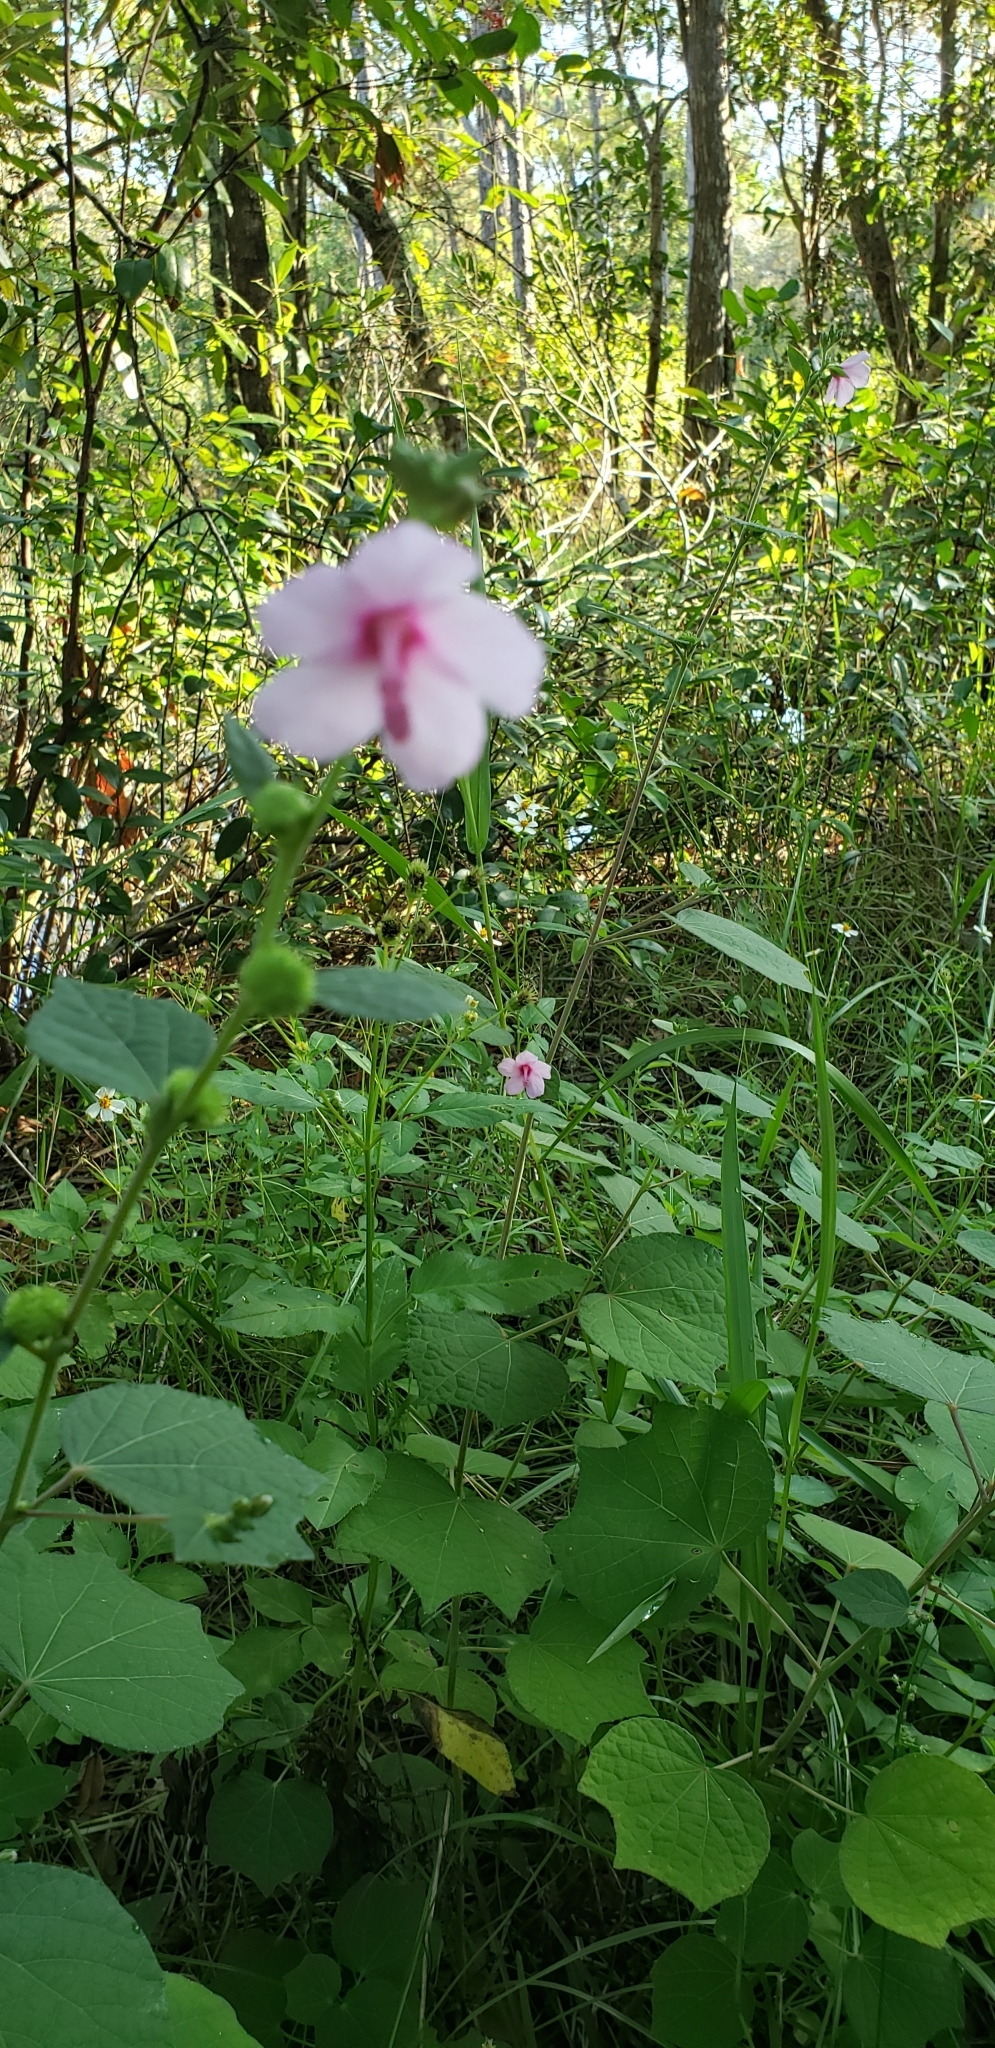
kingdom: Plantae
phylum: Tracheophyta
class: Magnoliopsida
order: Malvales
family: Malvaceae
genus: Urena
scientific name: Urena lobata
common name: Caesarweed
